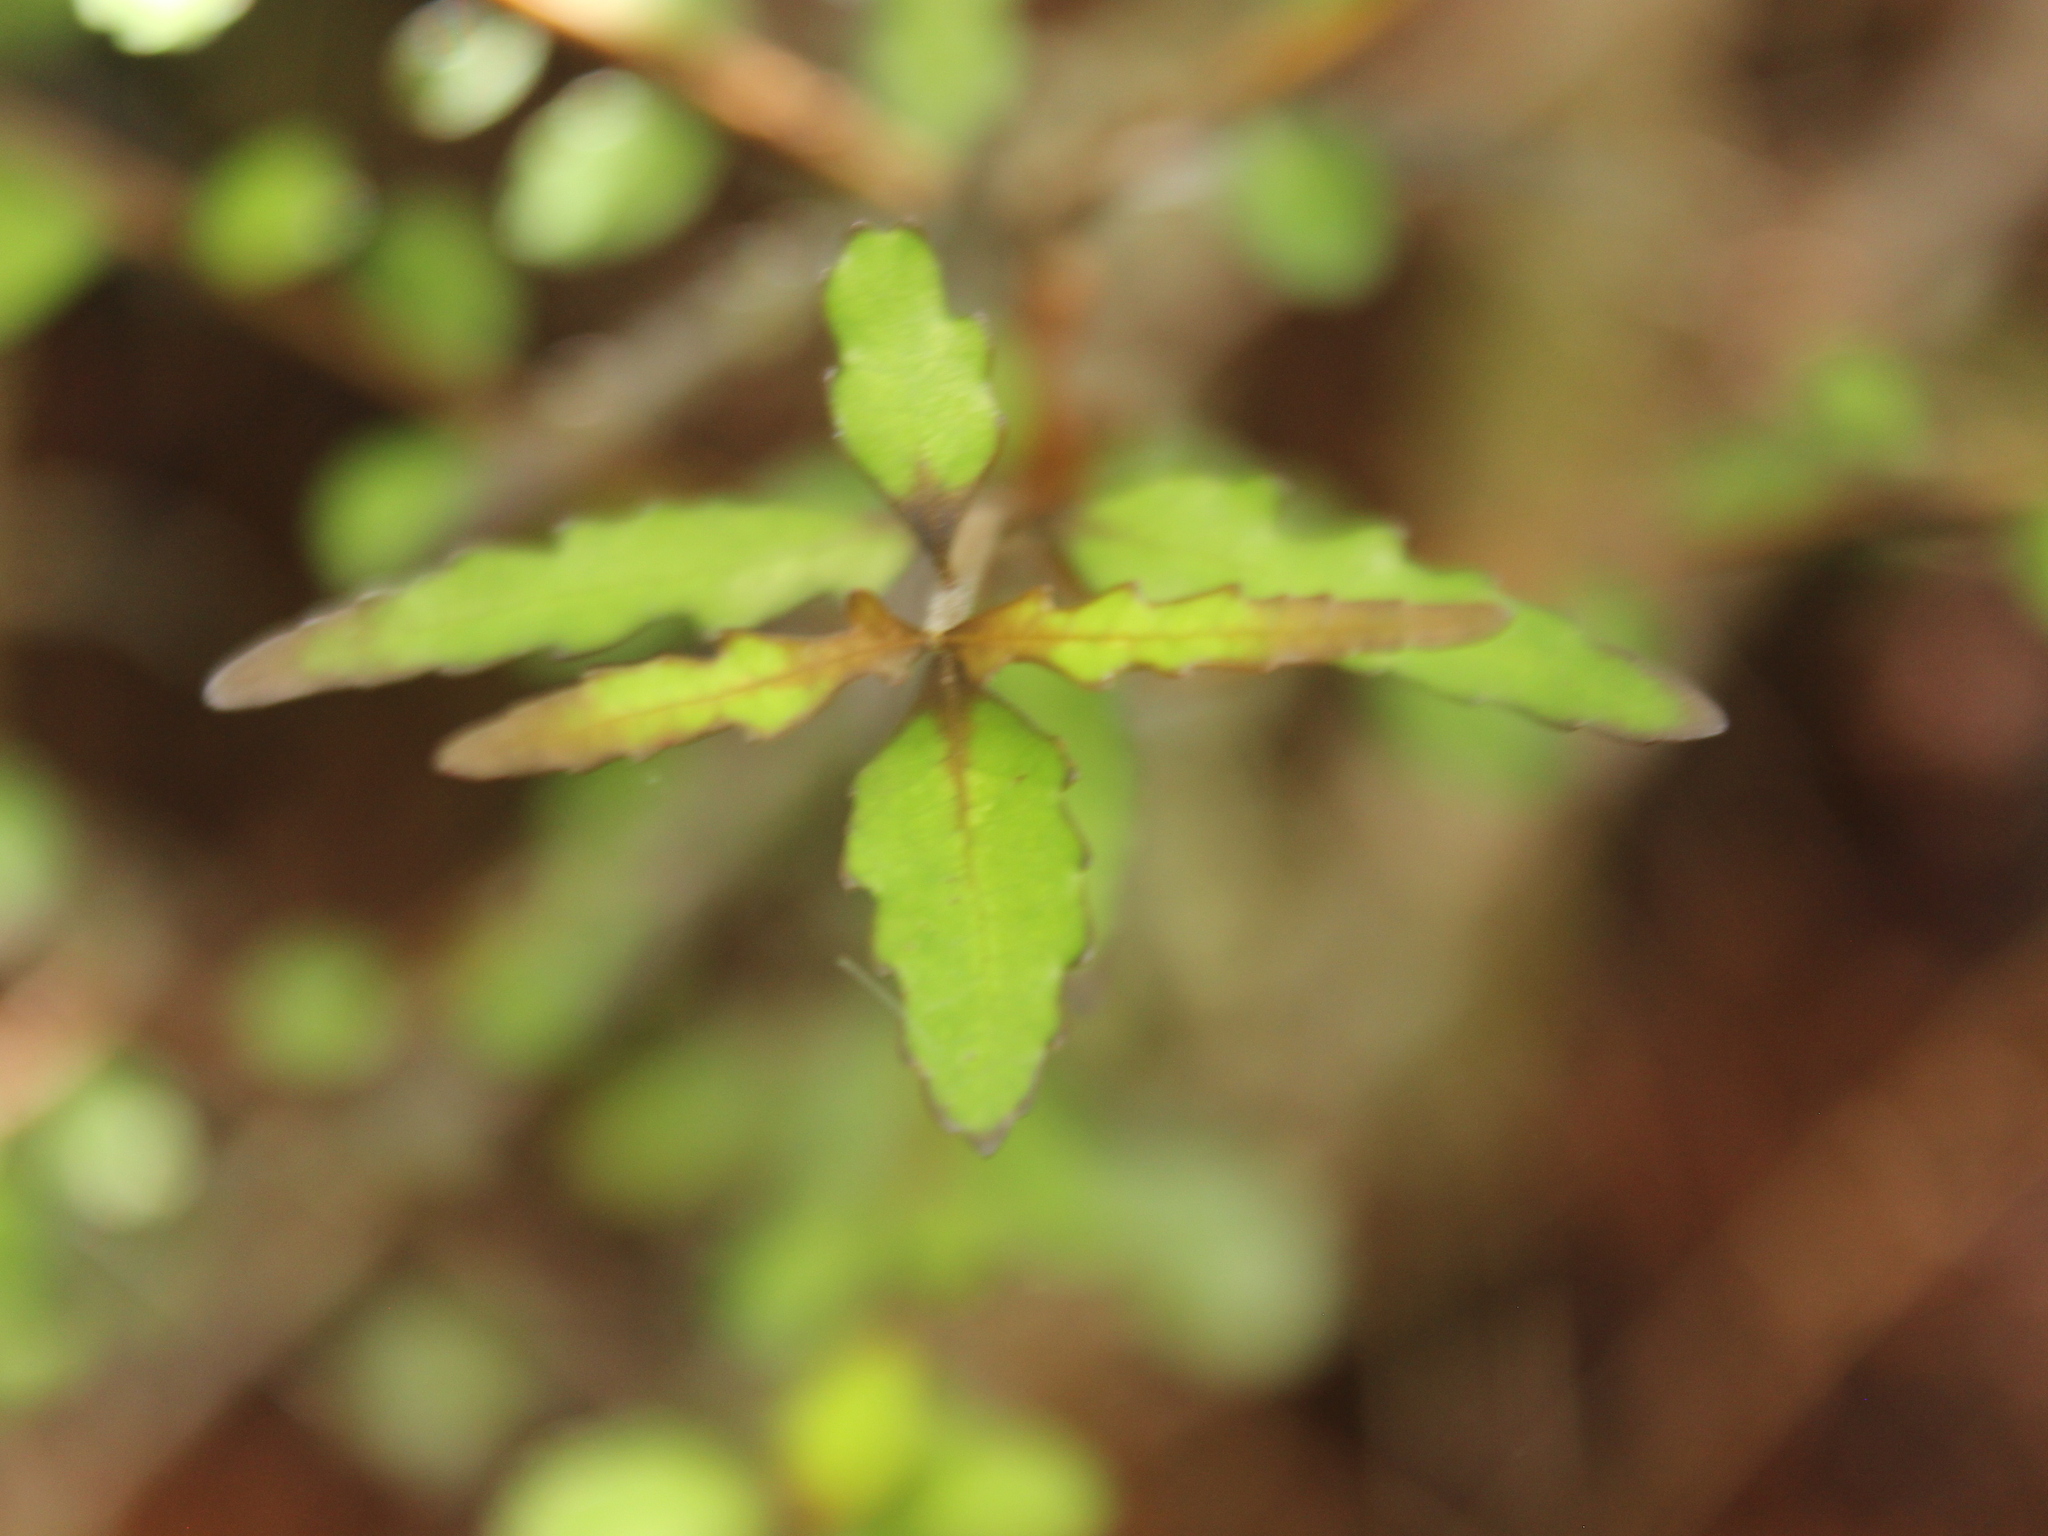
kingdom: Plantae
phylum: Tracheophyta
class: Magnoliopsida
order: Oxalidales
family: Elaeocarpaceae
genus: Aristotelia
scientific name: Aristotelia fruticosa
